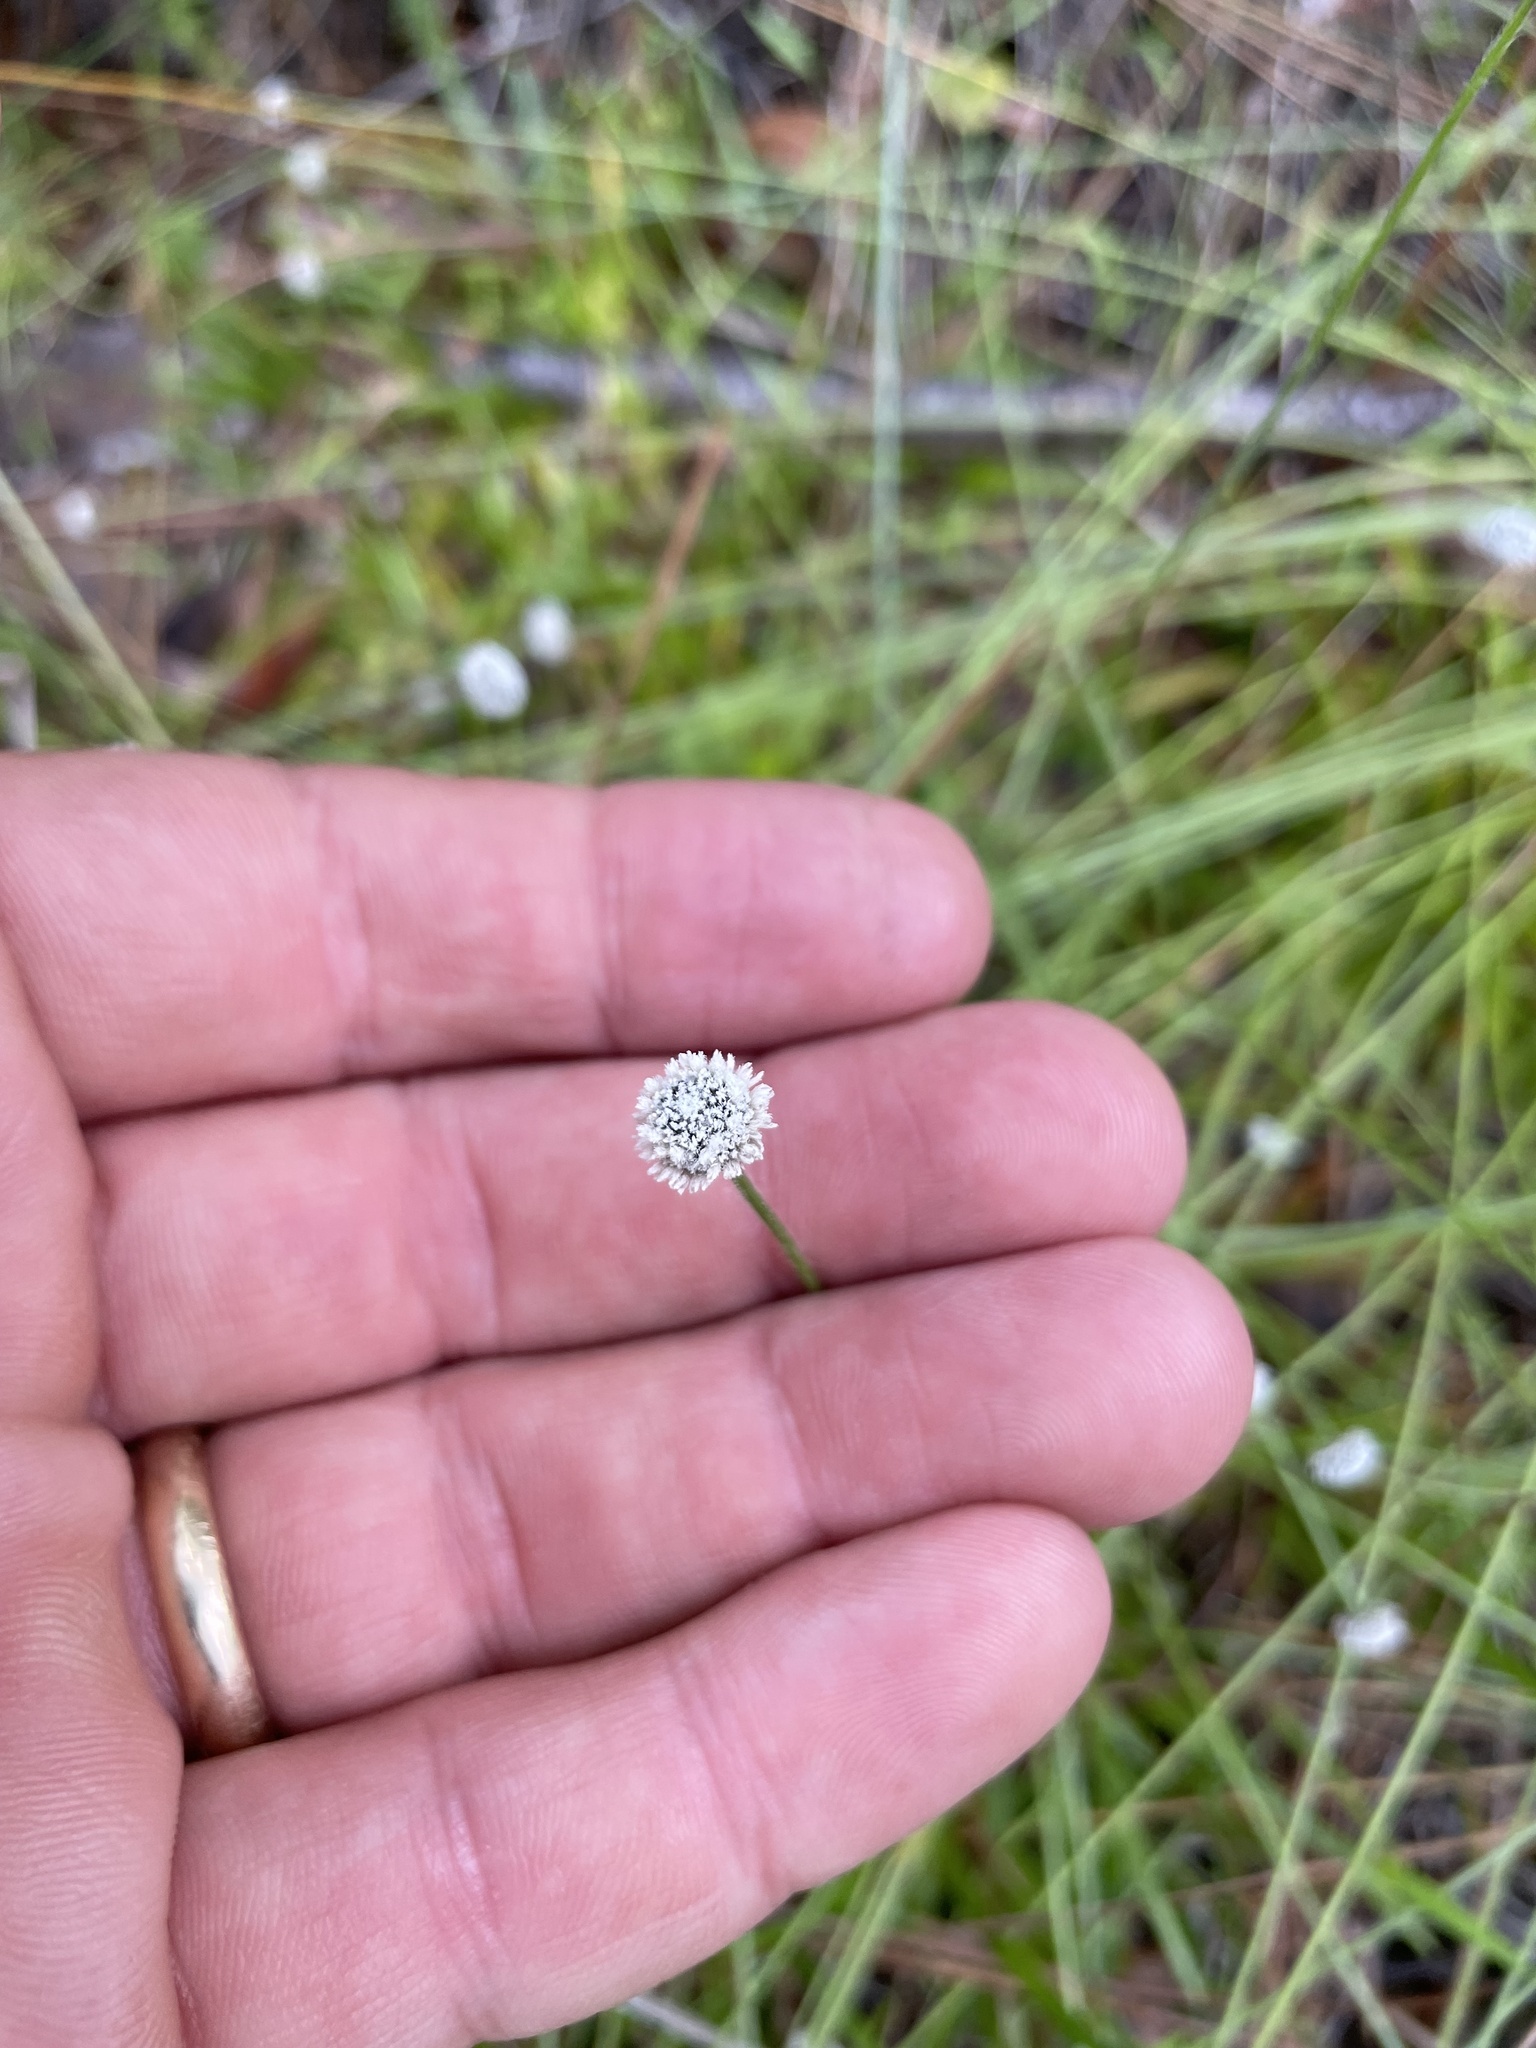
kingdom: Plantae
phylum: Tracheophyta
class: Liliopsida
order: Poales
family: Eriocaulaceae
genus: Paepalanthus
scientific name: Paepalanthus anceps
